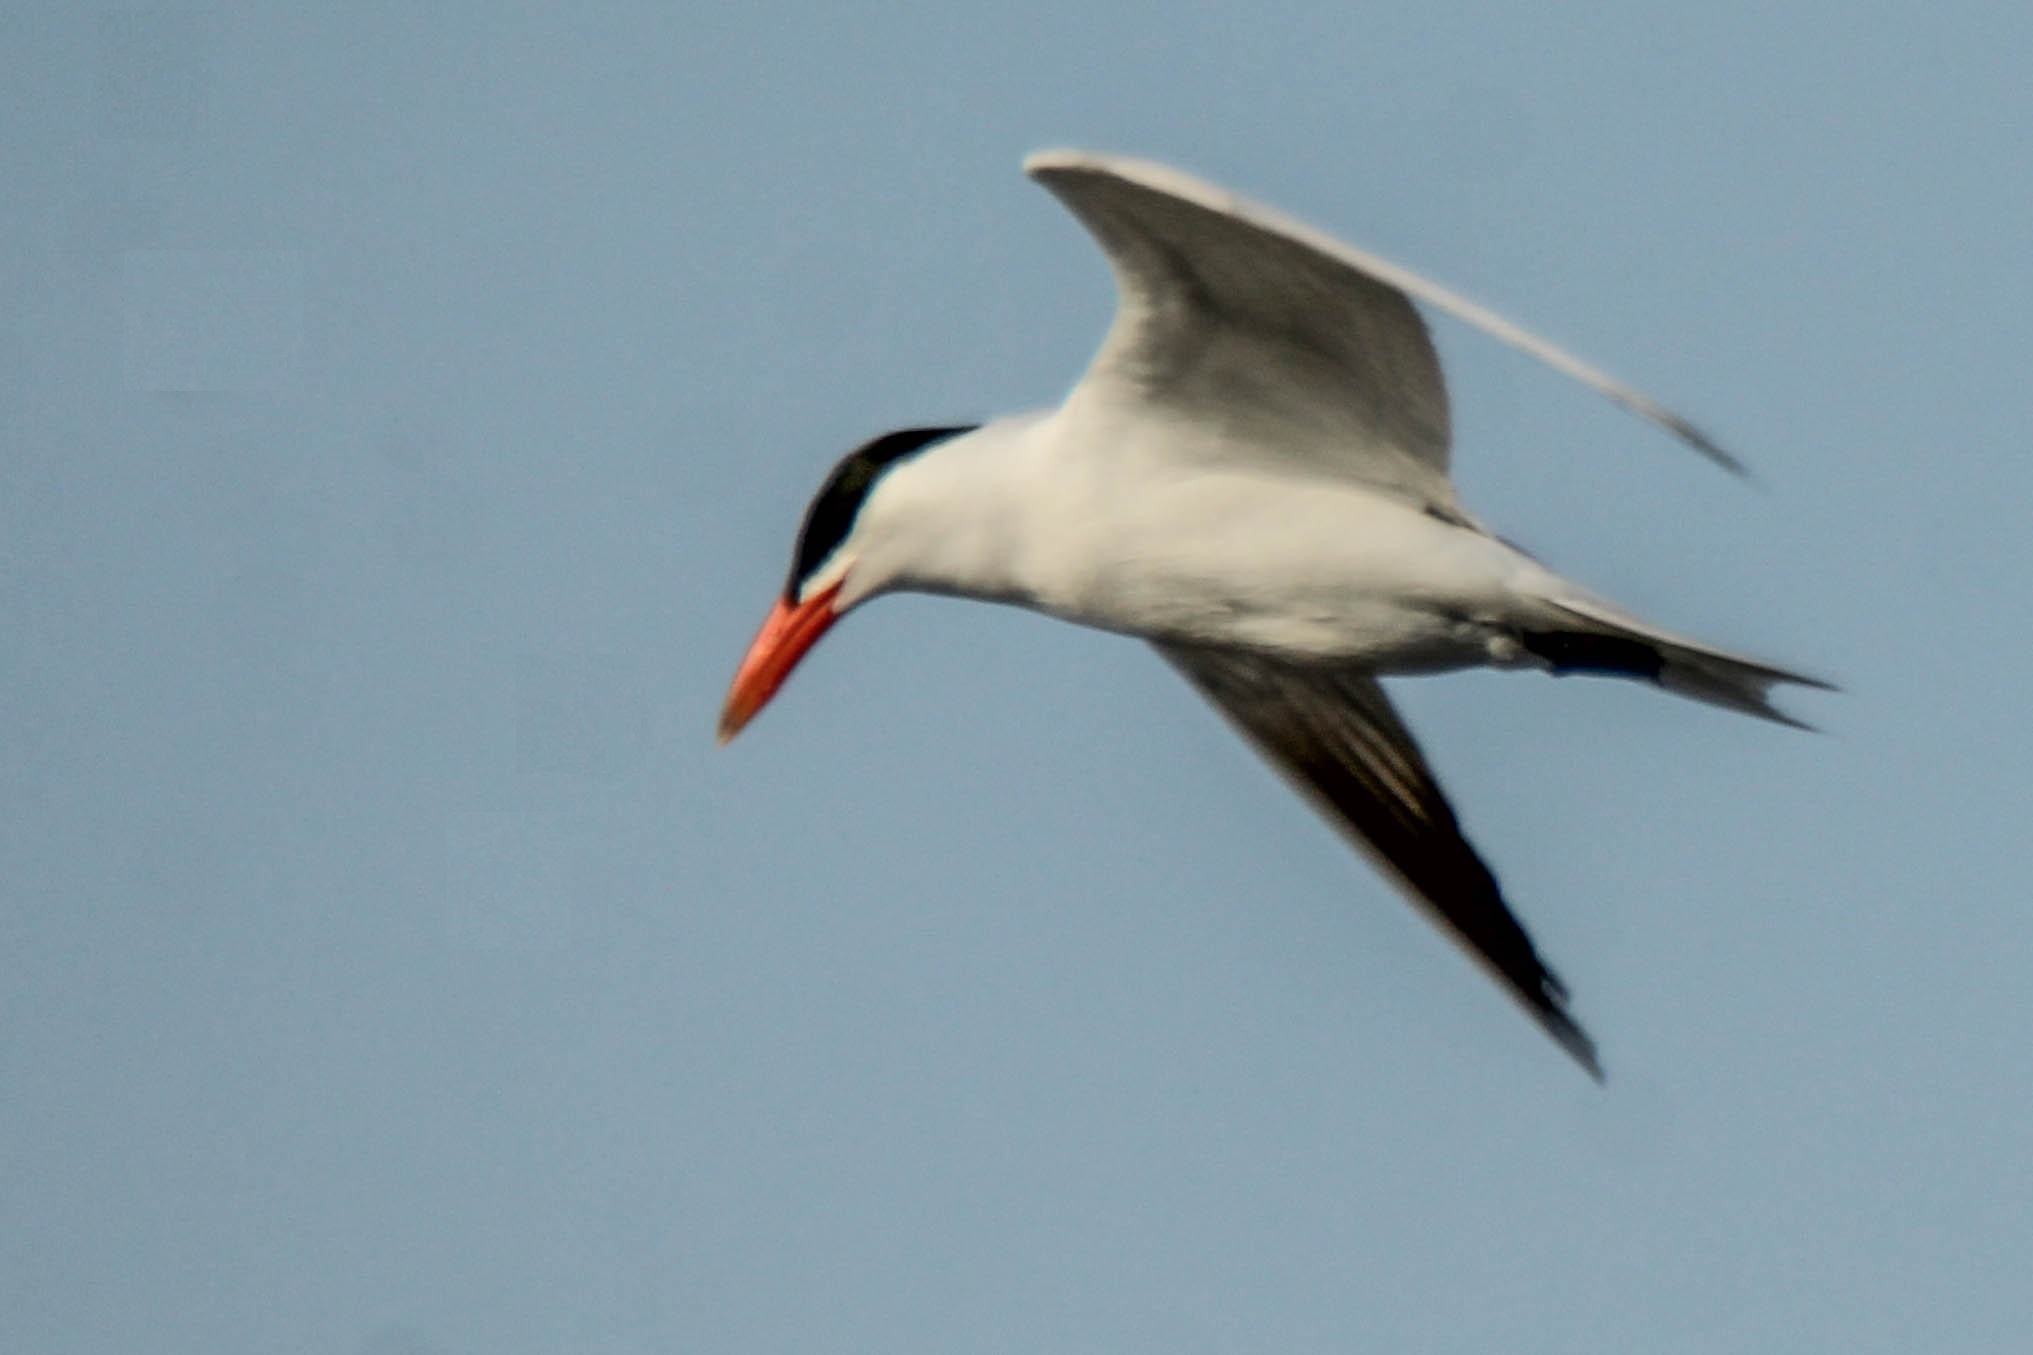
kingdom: Animalia
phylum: Chordata
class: Aves
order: Charadriiformes
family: Laridae
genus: Hydroprogne
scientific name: Hydroprogne caspia
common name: Caspian tern
